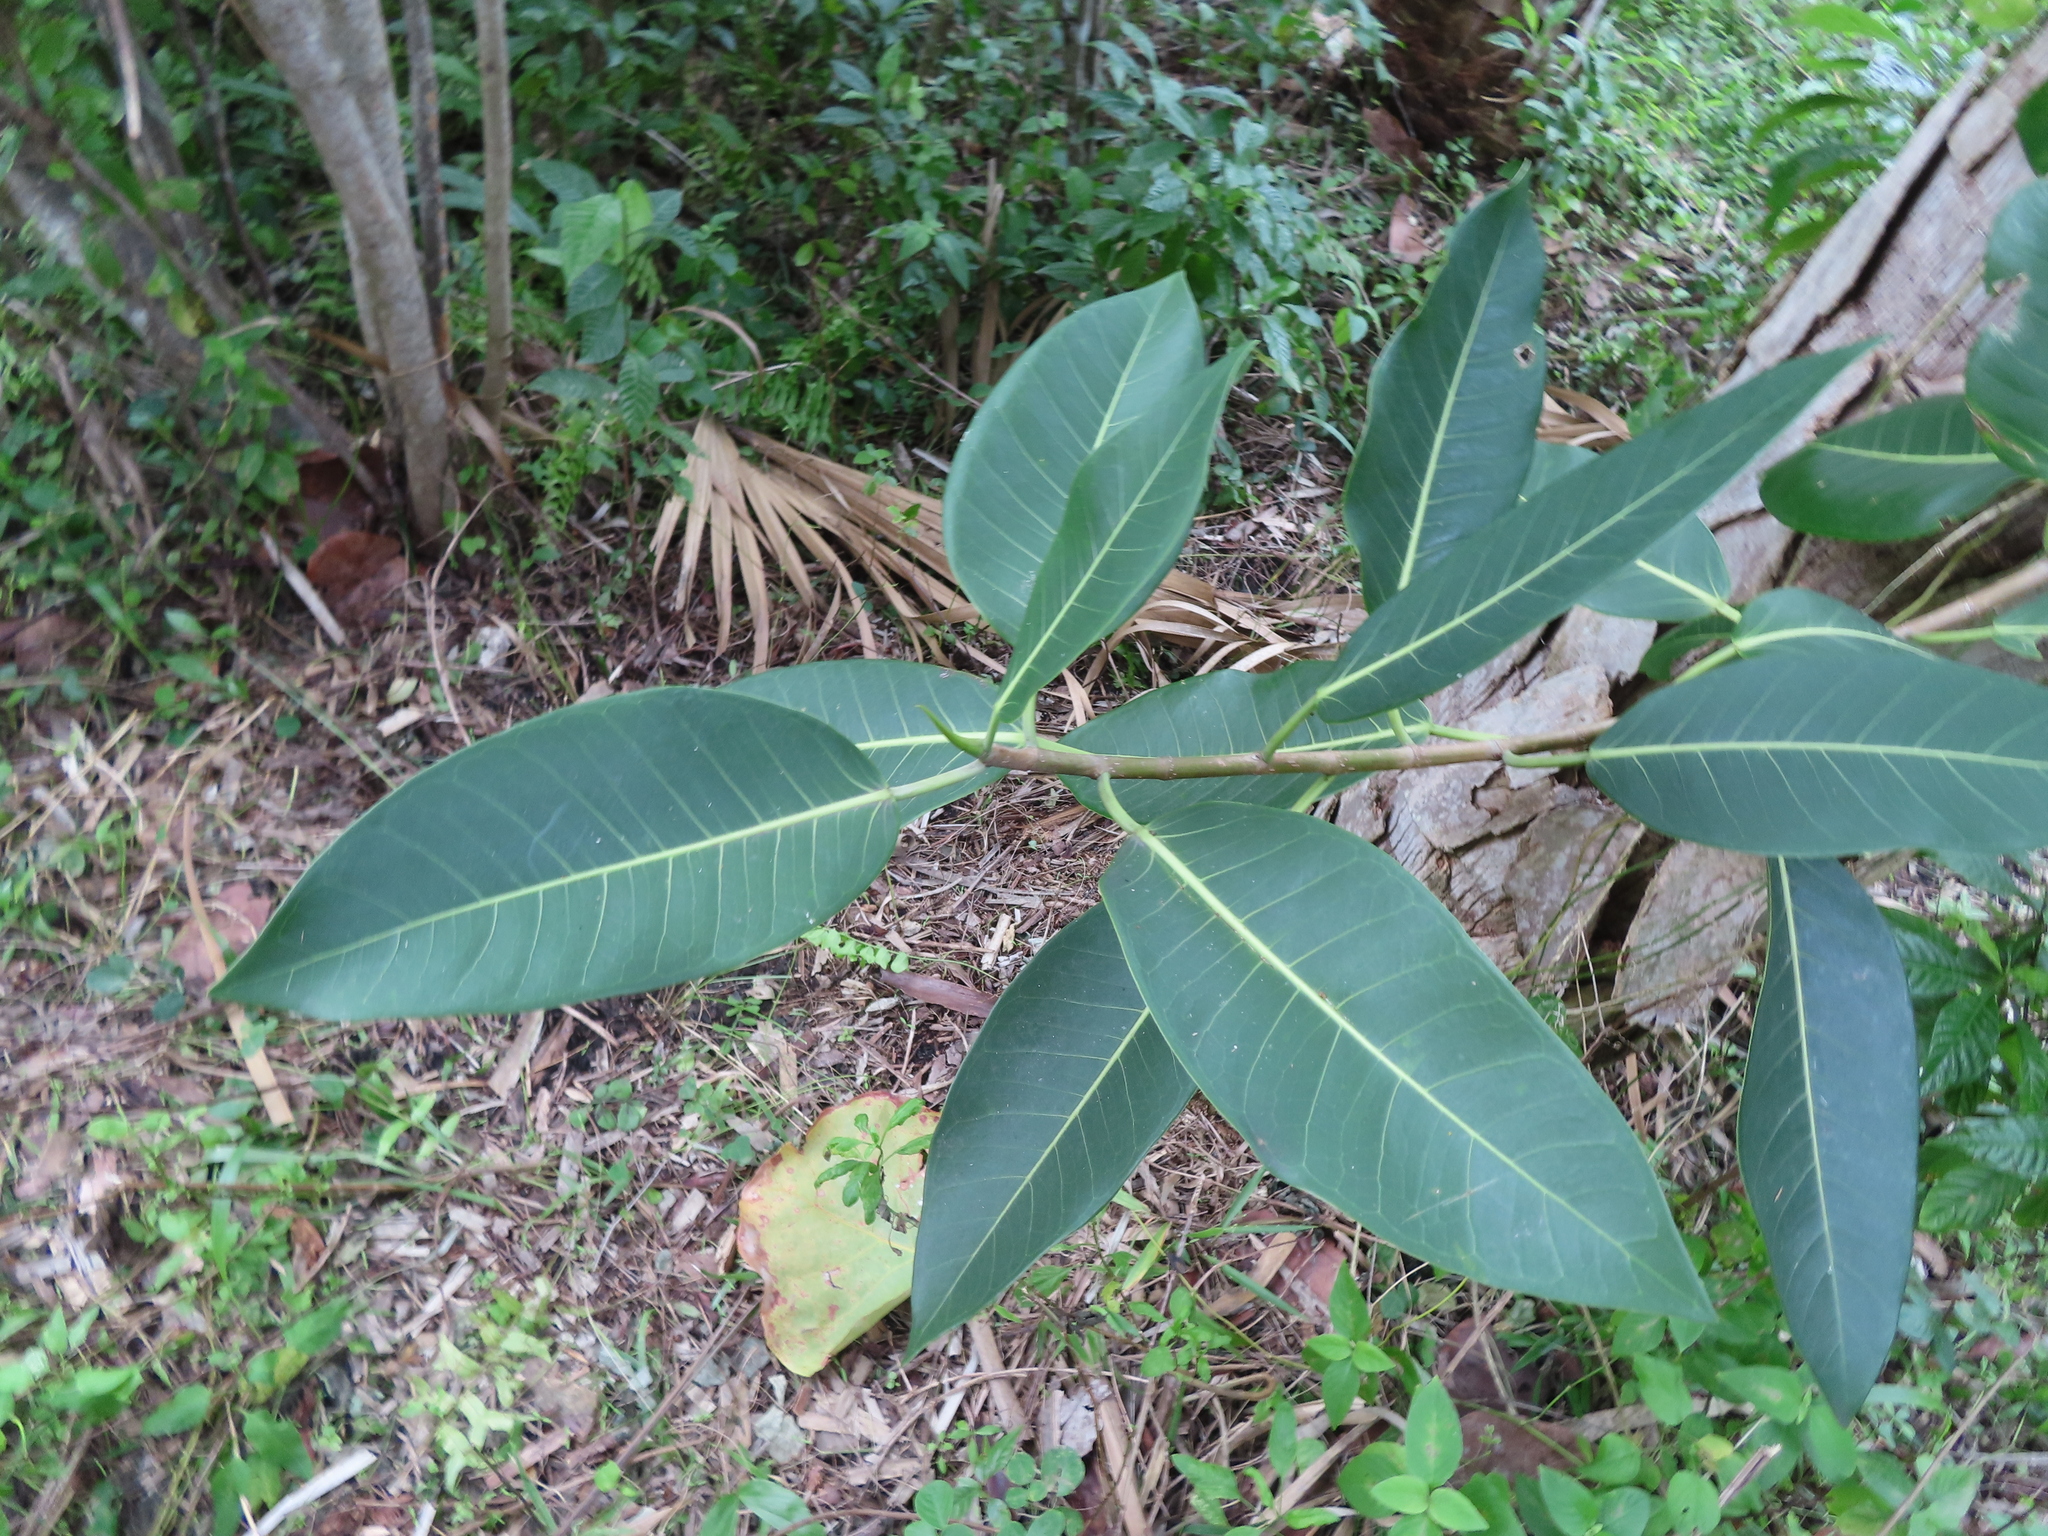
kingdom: Plantae
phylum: Tracheophyta
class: Magnoliopsida
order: Rosales
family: Moraceae
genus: Ficus
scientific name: Ficus aurea
